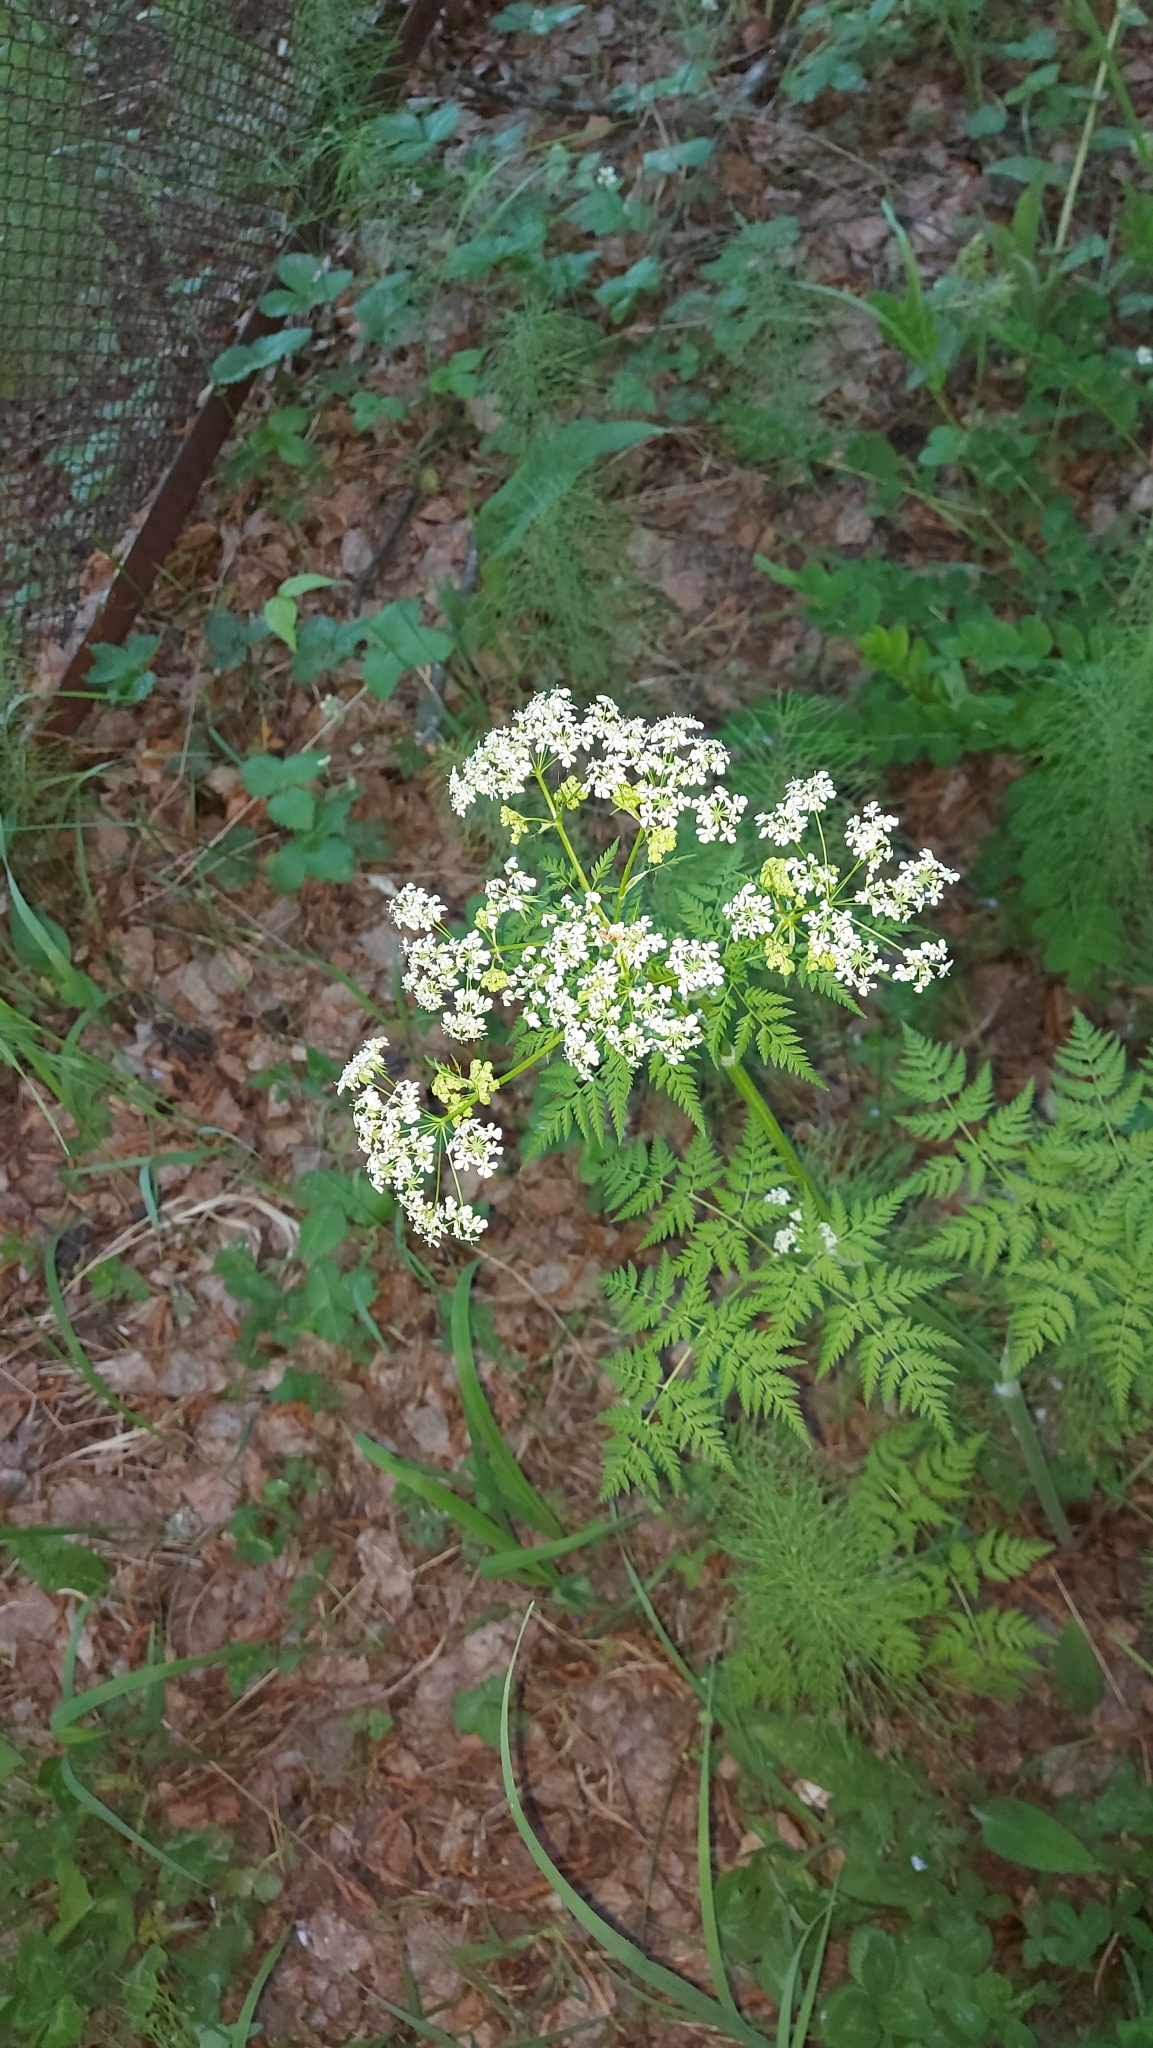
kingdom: Plantae
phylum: Tracheophyta
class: Magnoliopsida
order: Apiales
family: Apiaceae
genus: Anthriscus
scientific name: Anthriscus sylvestris
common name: Cow parsley
